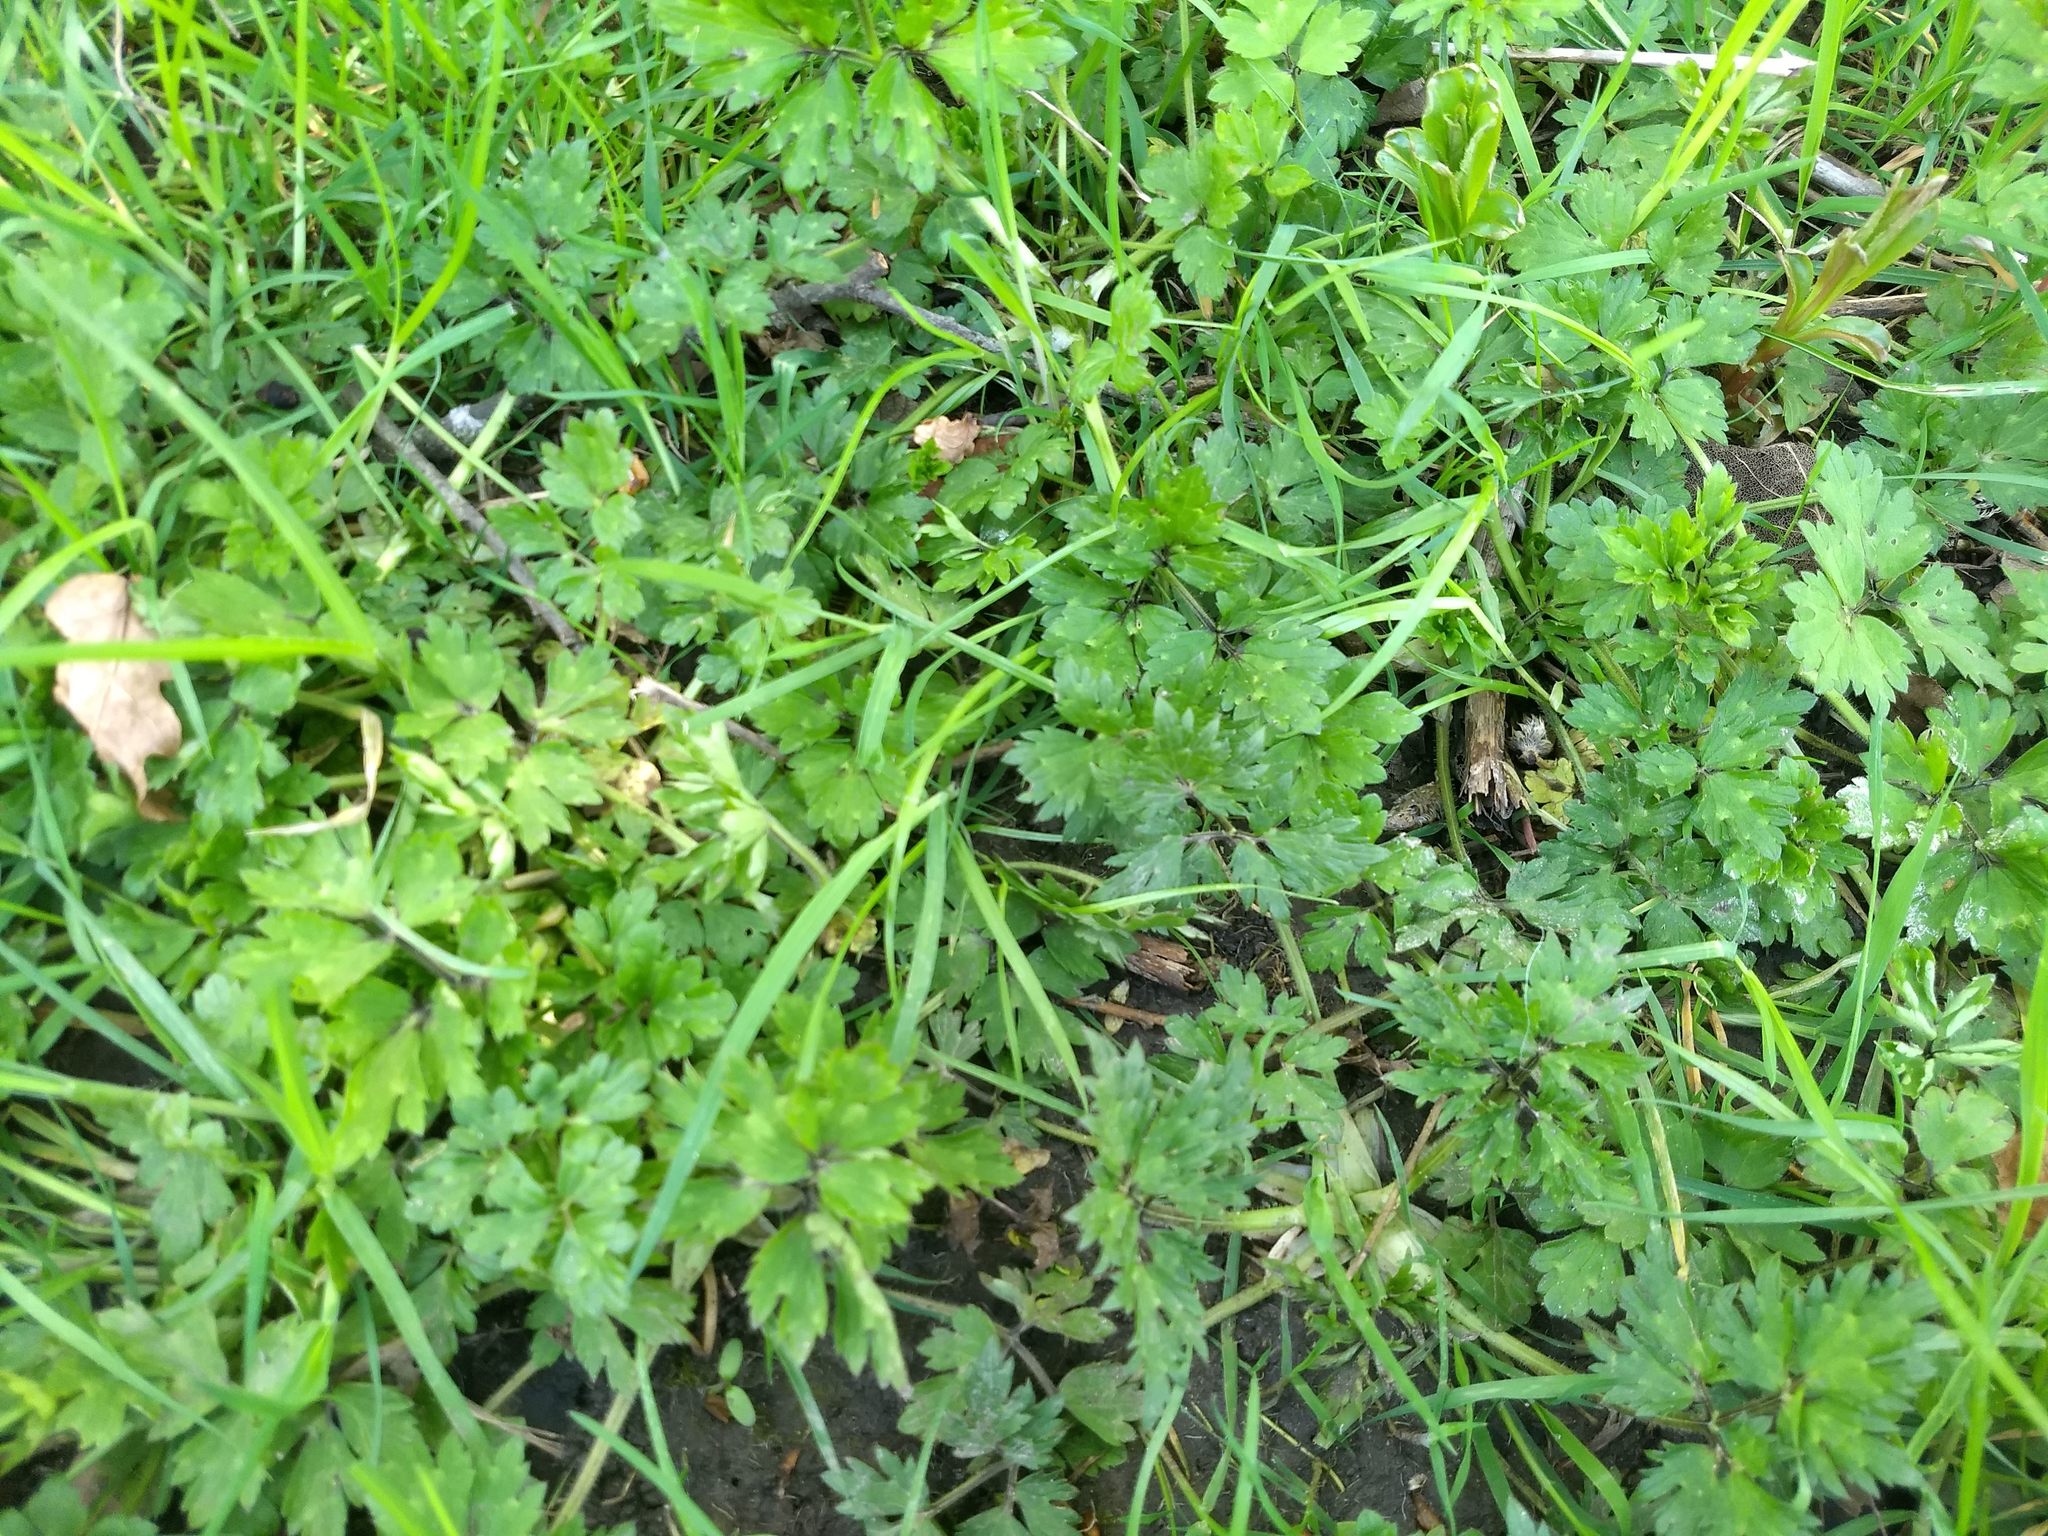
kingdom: Plantae
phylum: Tracheophyta
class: Magnoliopsida
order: Ranunculales
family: Ranunculaceae
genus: Ranunculus
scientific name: Ranunculus repens
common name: Creeping buttercup
